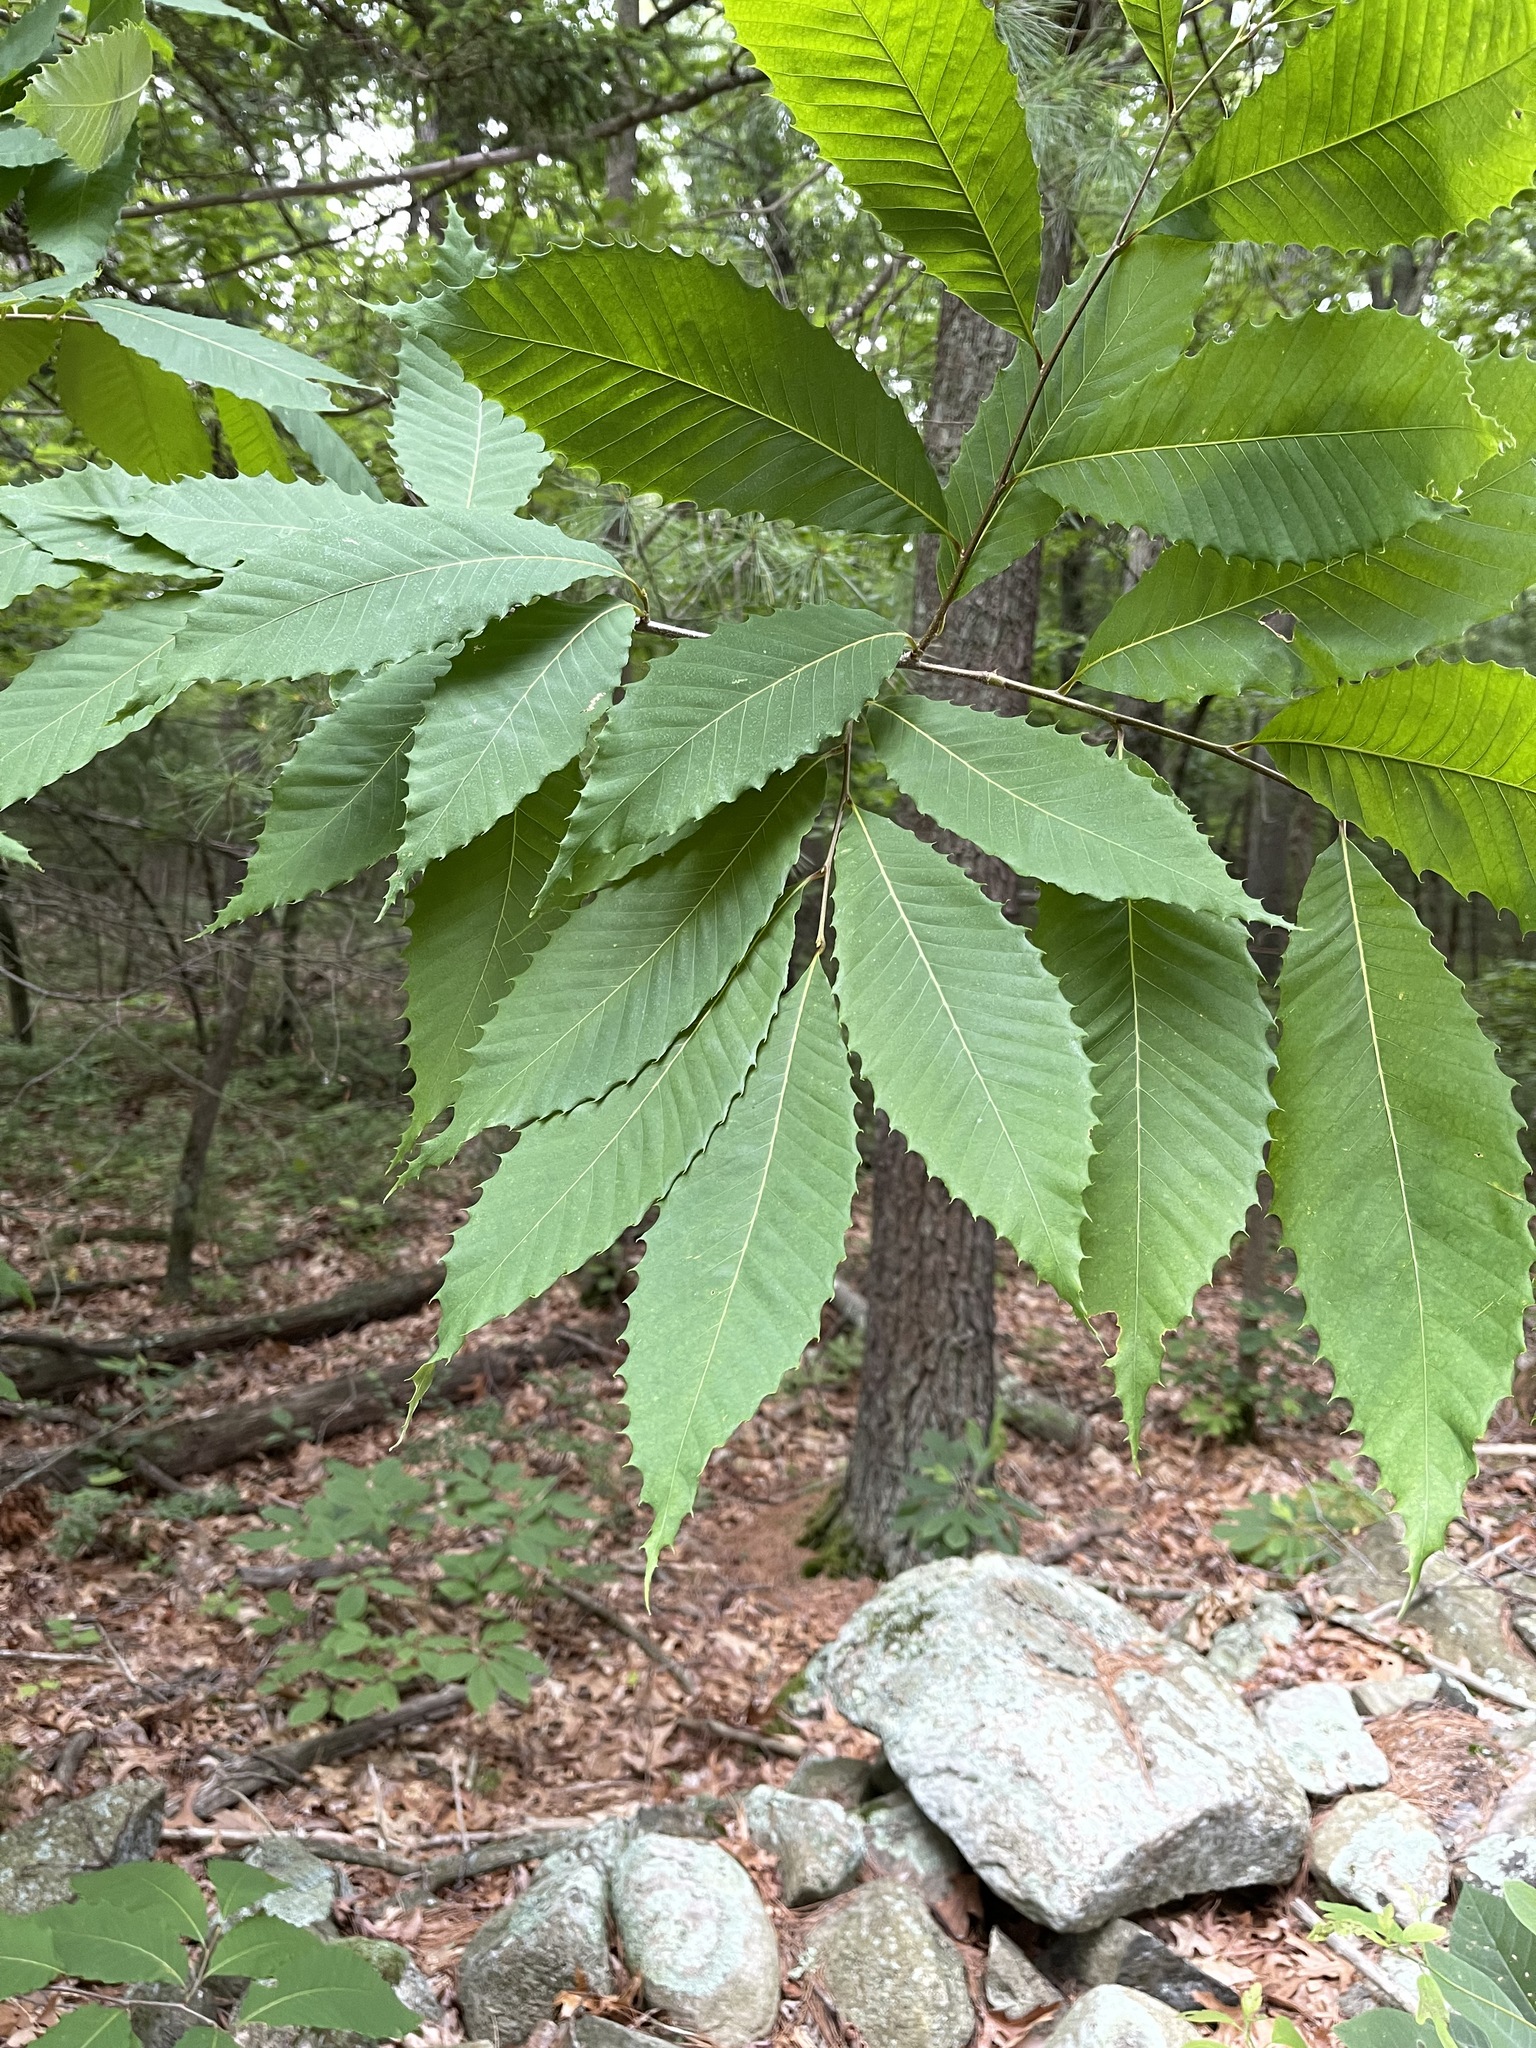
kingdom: Plantae
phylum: Tracheophyta
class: Magnoliopsida
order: Fagales
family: Fagaceae
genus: Castanea
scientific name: Castanea dentata
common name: American chestnut
